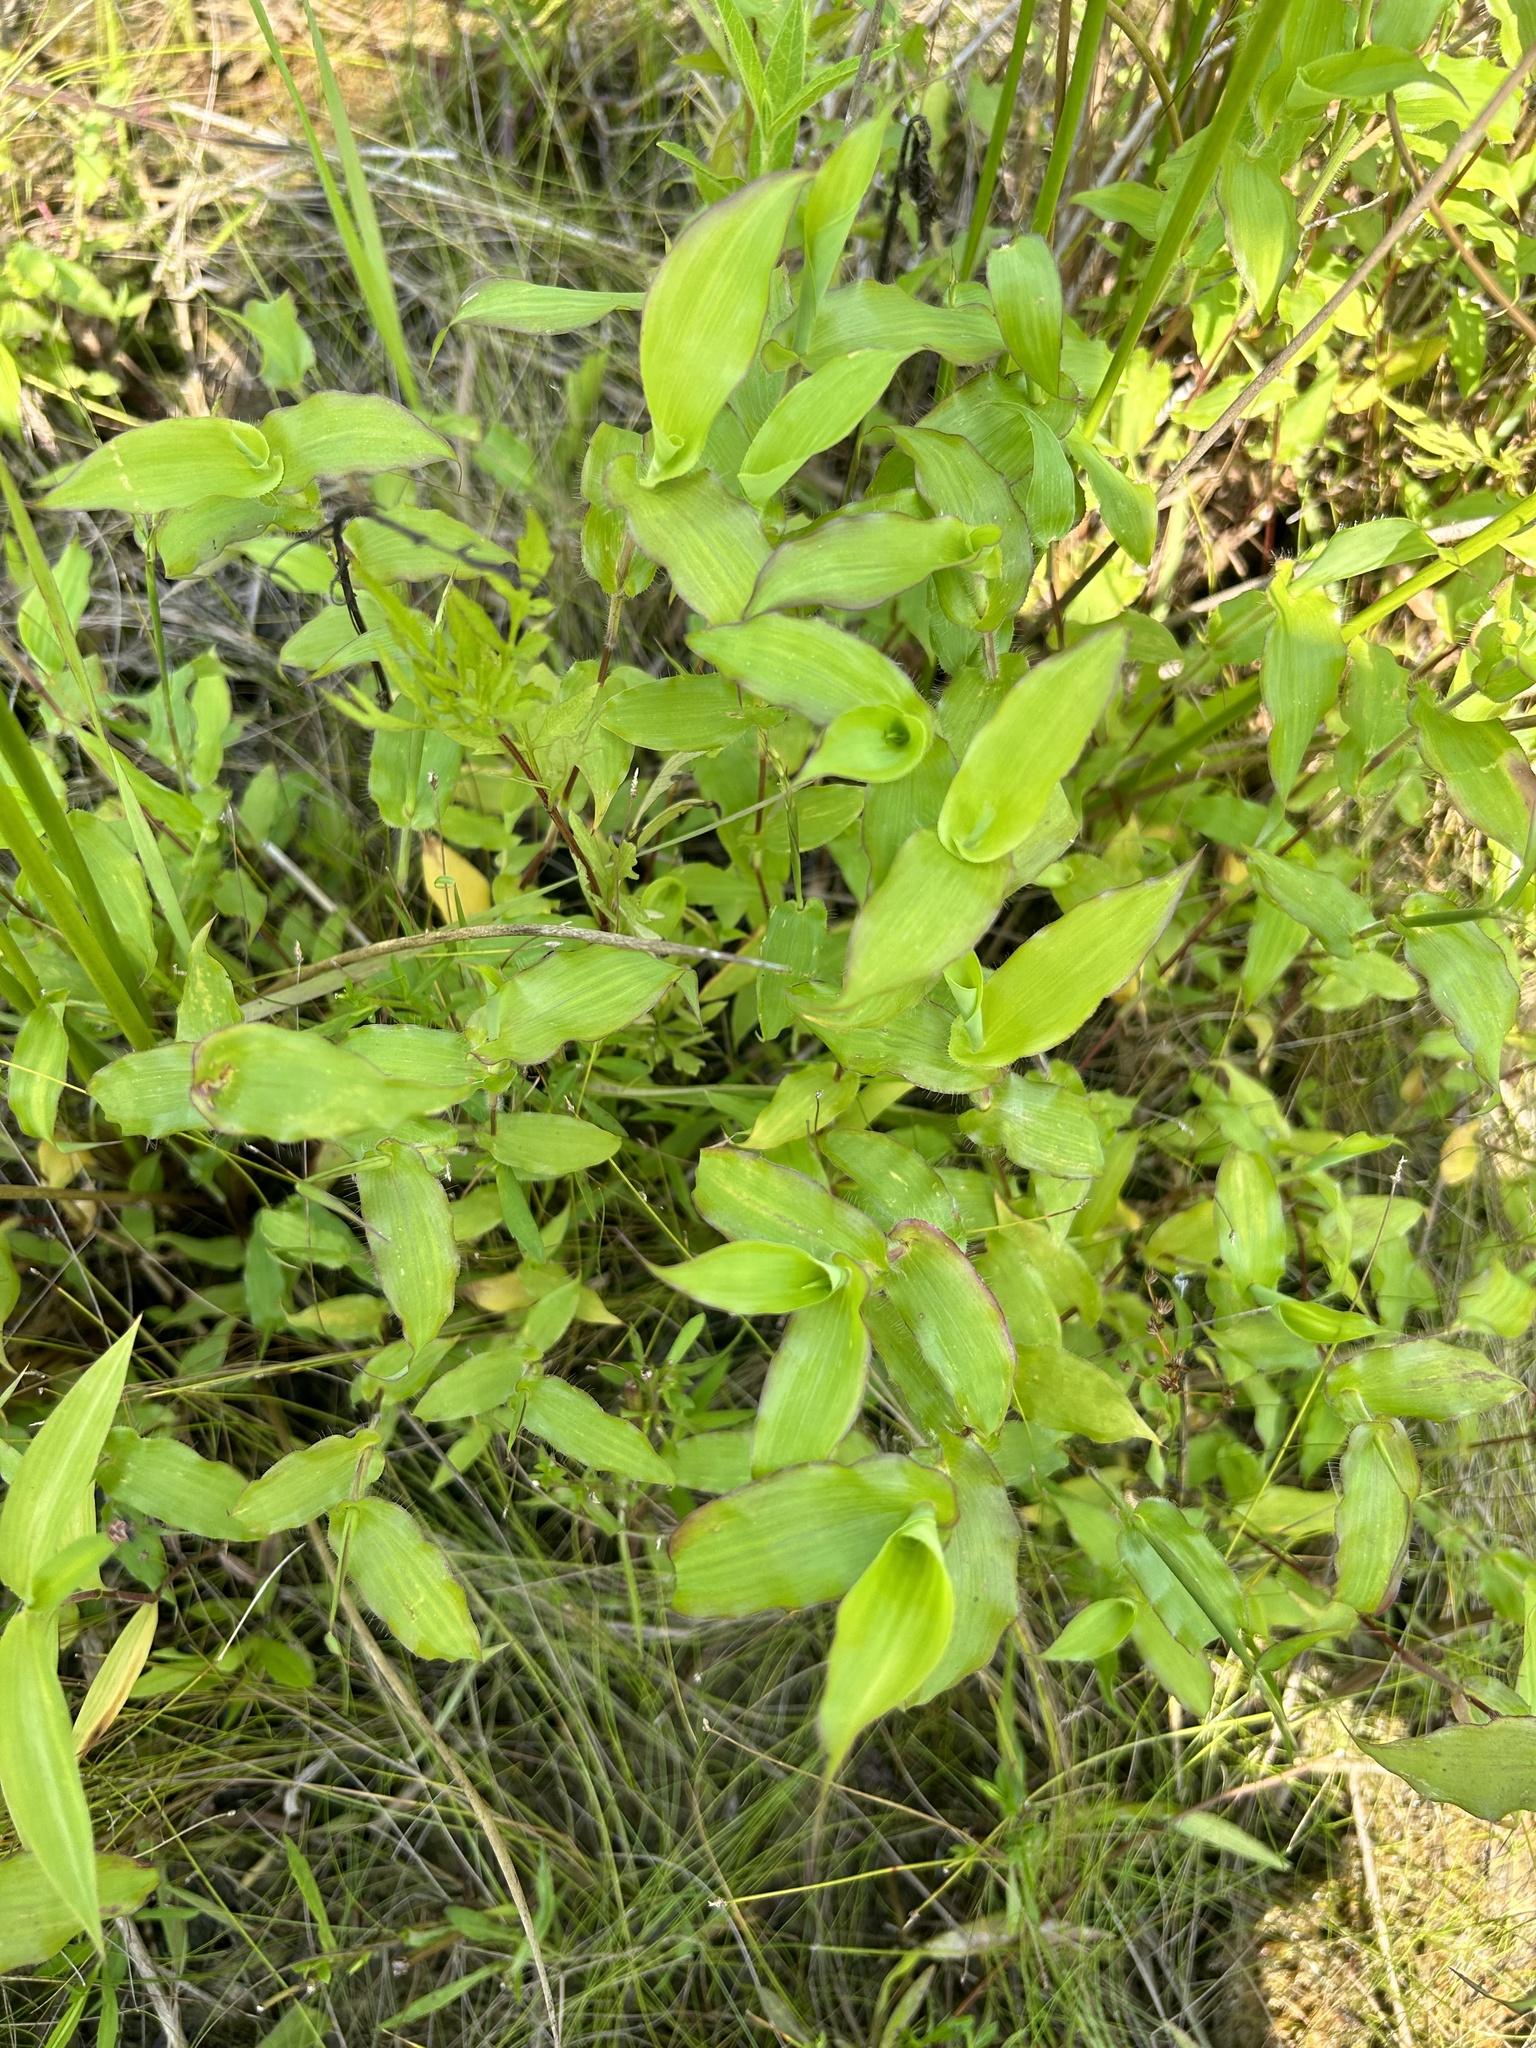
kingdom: Plantae
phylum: Tracheophyta
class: Liliopsida
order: Poales
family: Poaceae
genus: Arthraxon
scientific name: Arthraxon hispidus
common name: Small carpgrass
